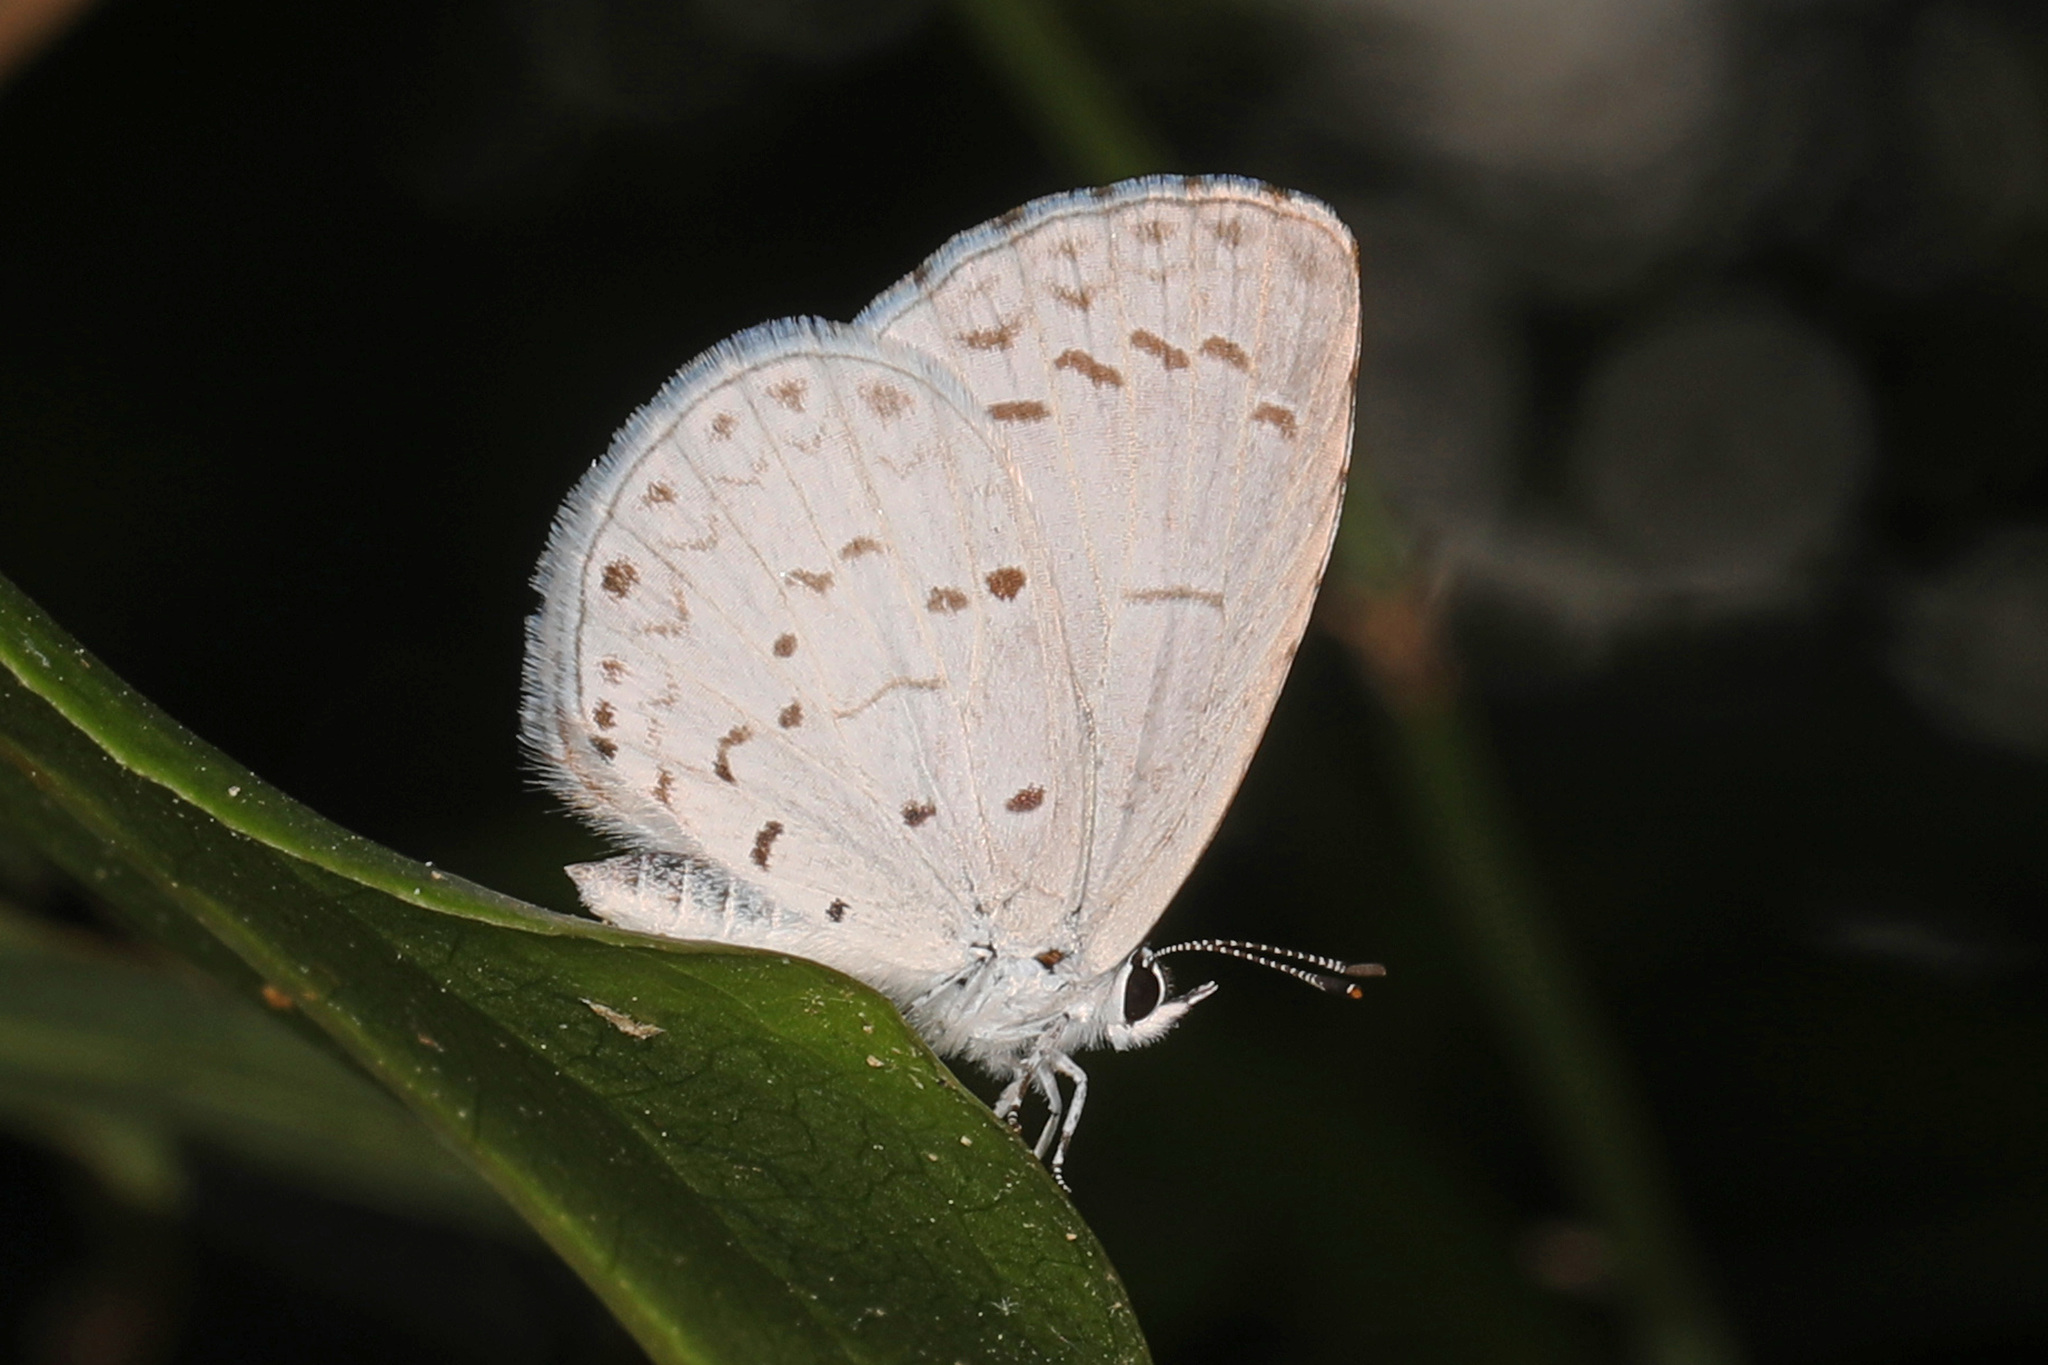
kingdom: Animalia
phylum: Arthropoda
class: Insecta
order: Lepidoptera
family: Lycaenidae
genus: Cyaniris
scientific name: Cyaniris neglecta
